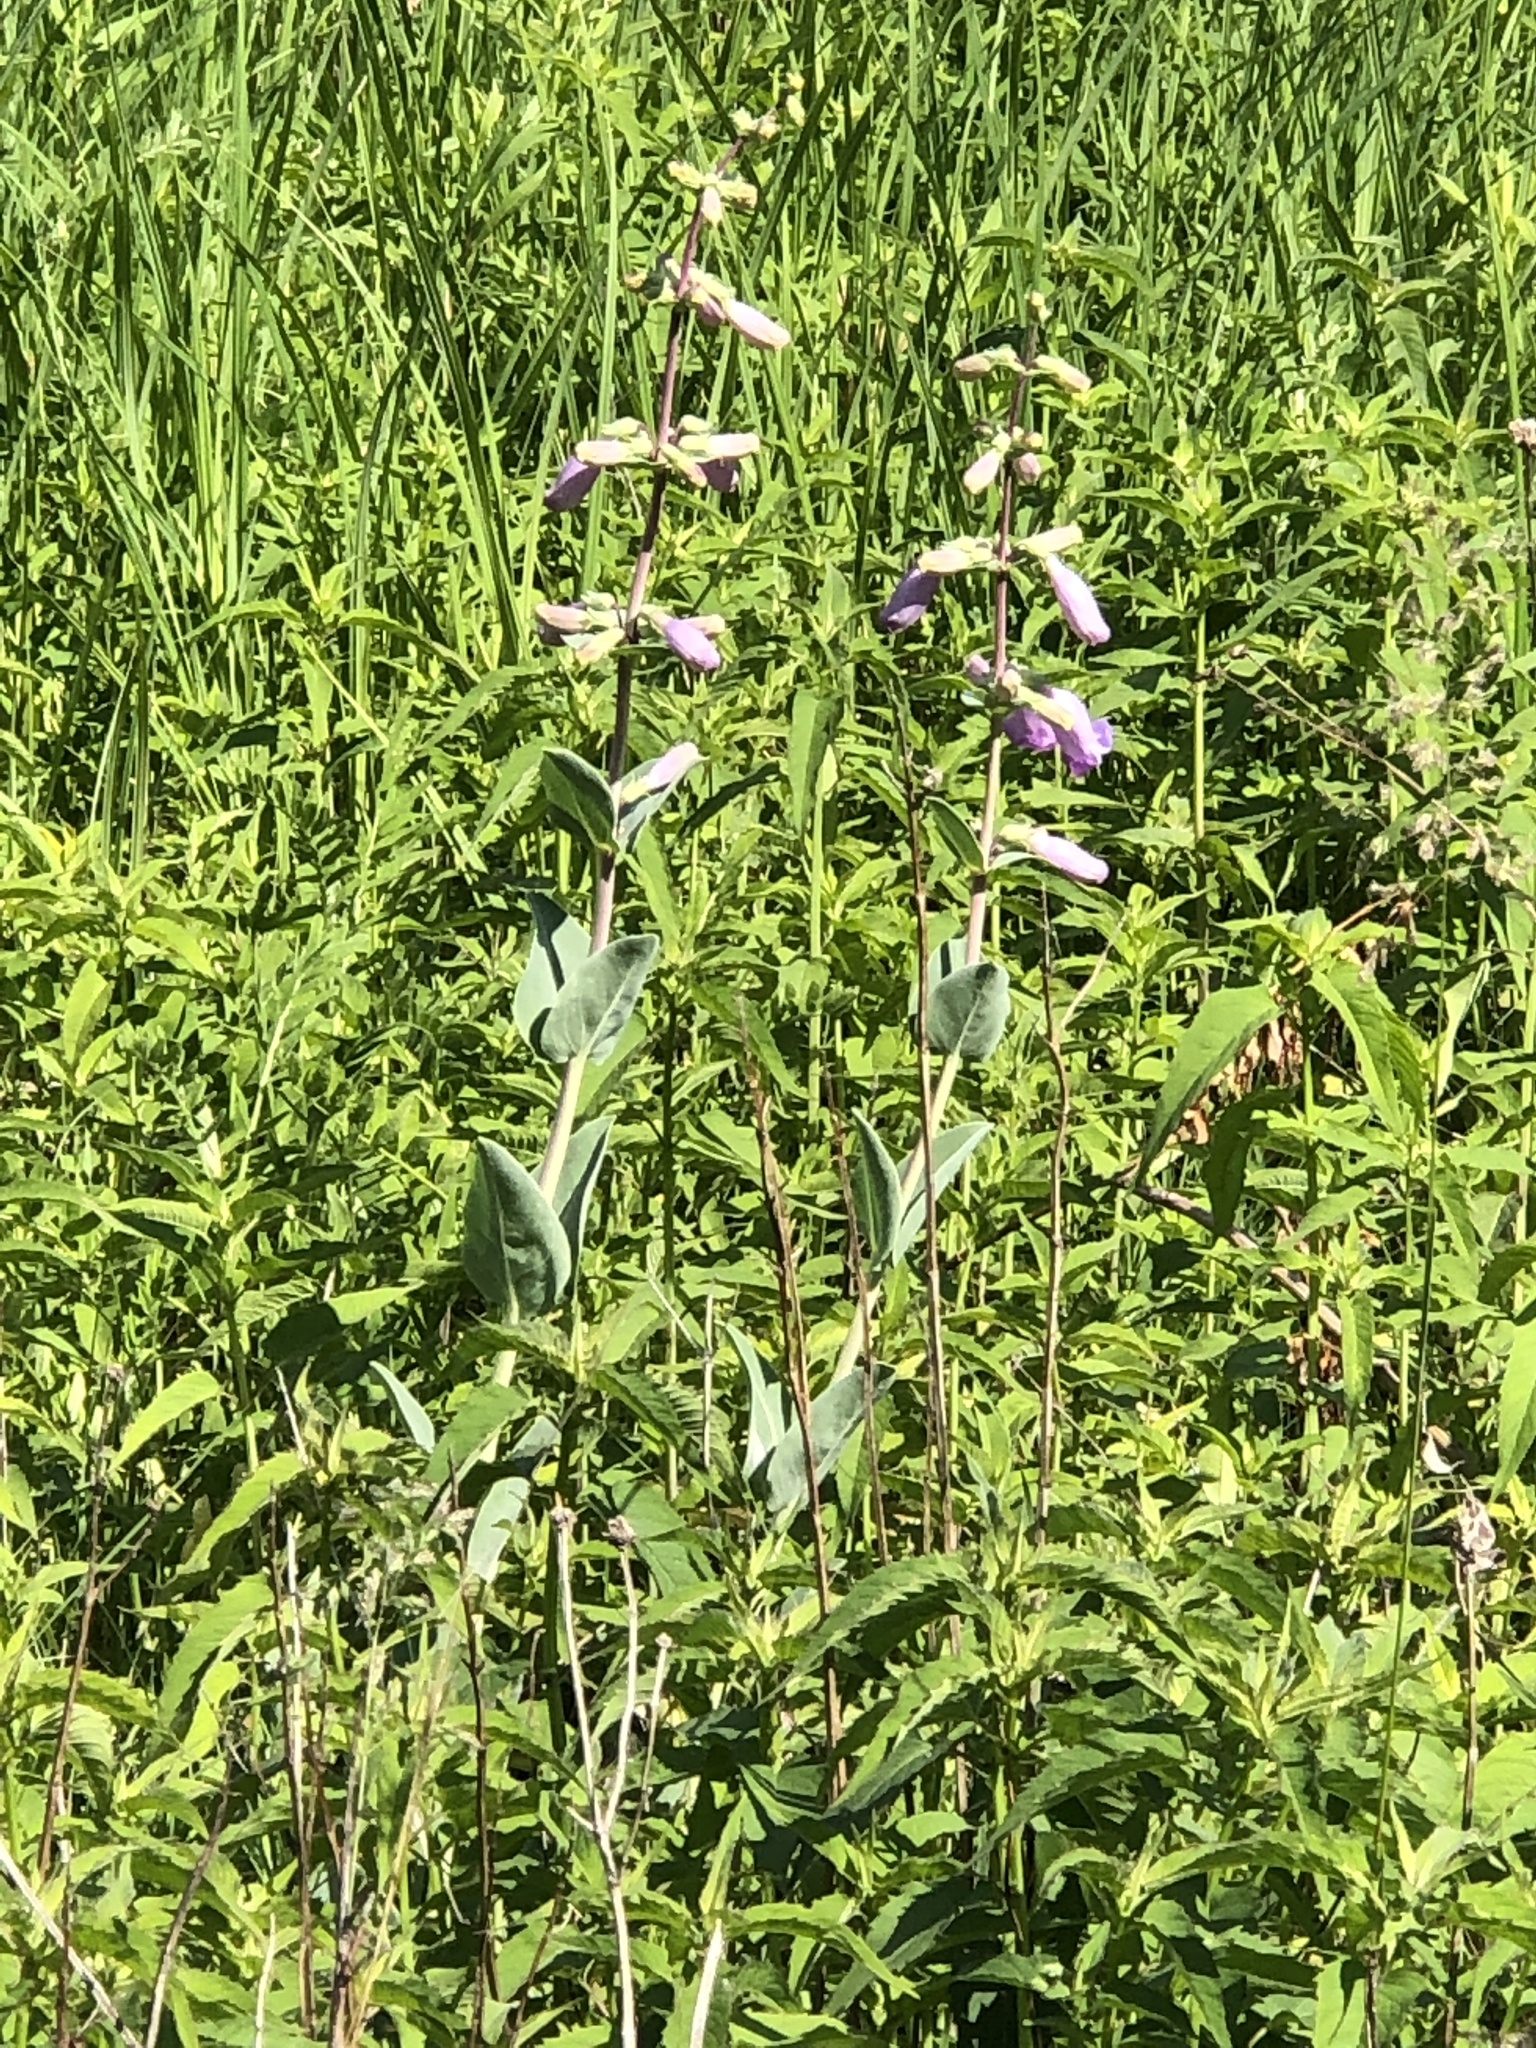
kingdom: Plantae
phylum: Tracheophyta
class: Magnoliopsida
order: Lamiales
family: Plantaginaceae
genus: Penstemon
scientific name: Penstemon
